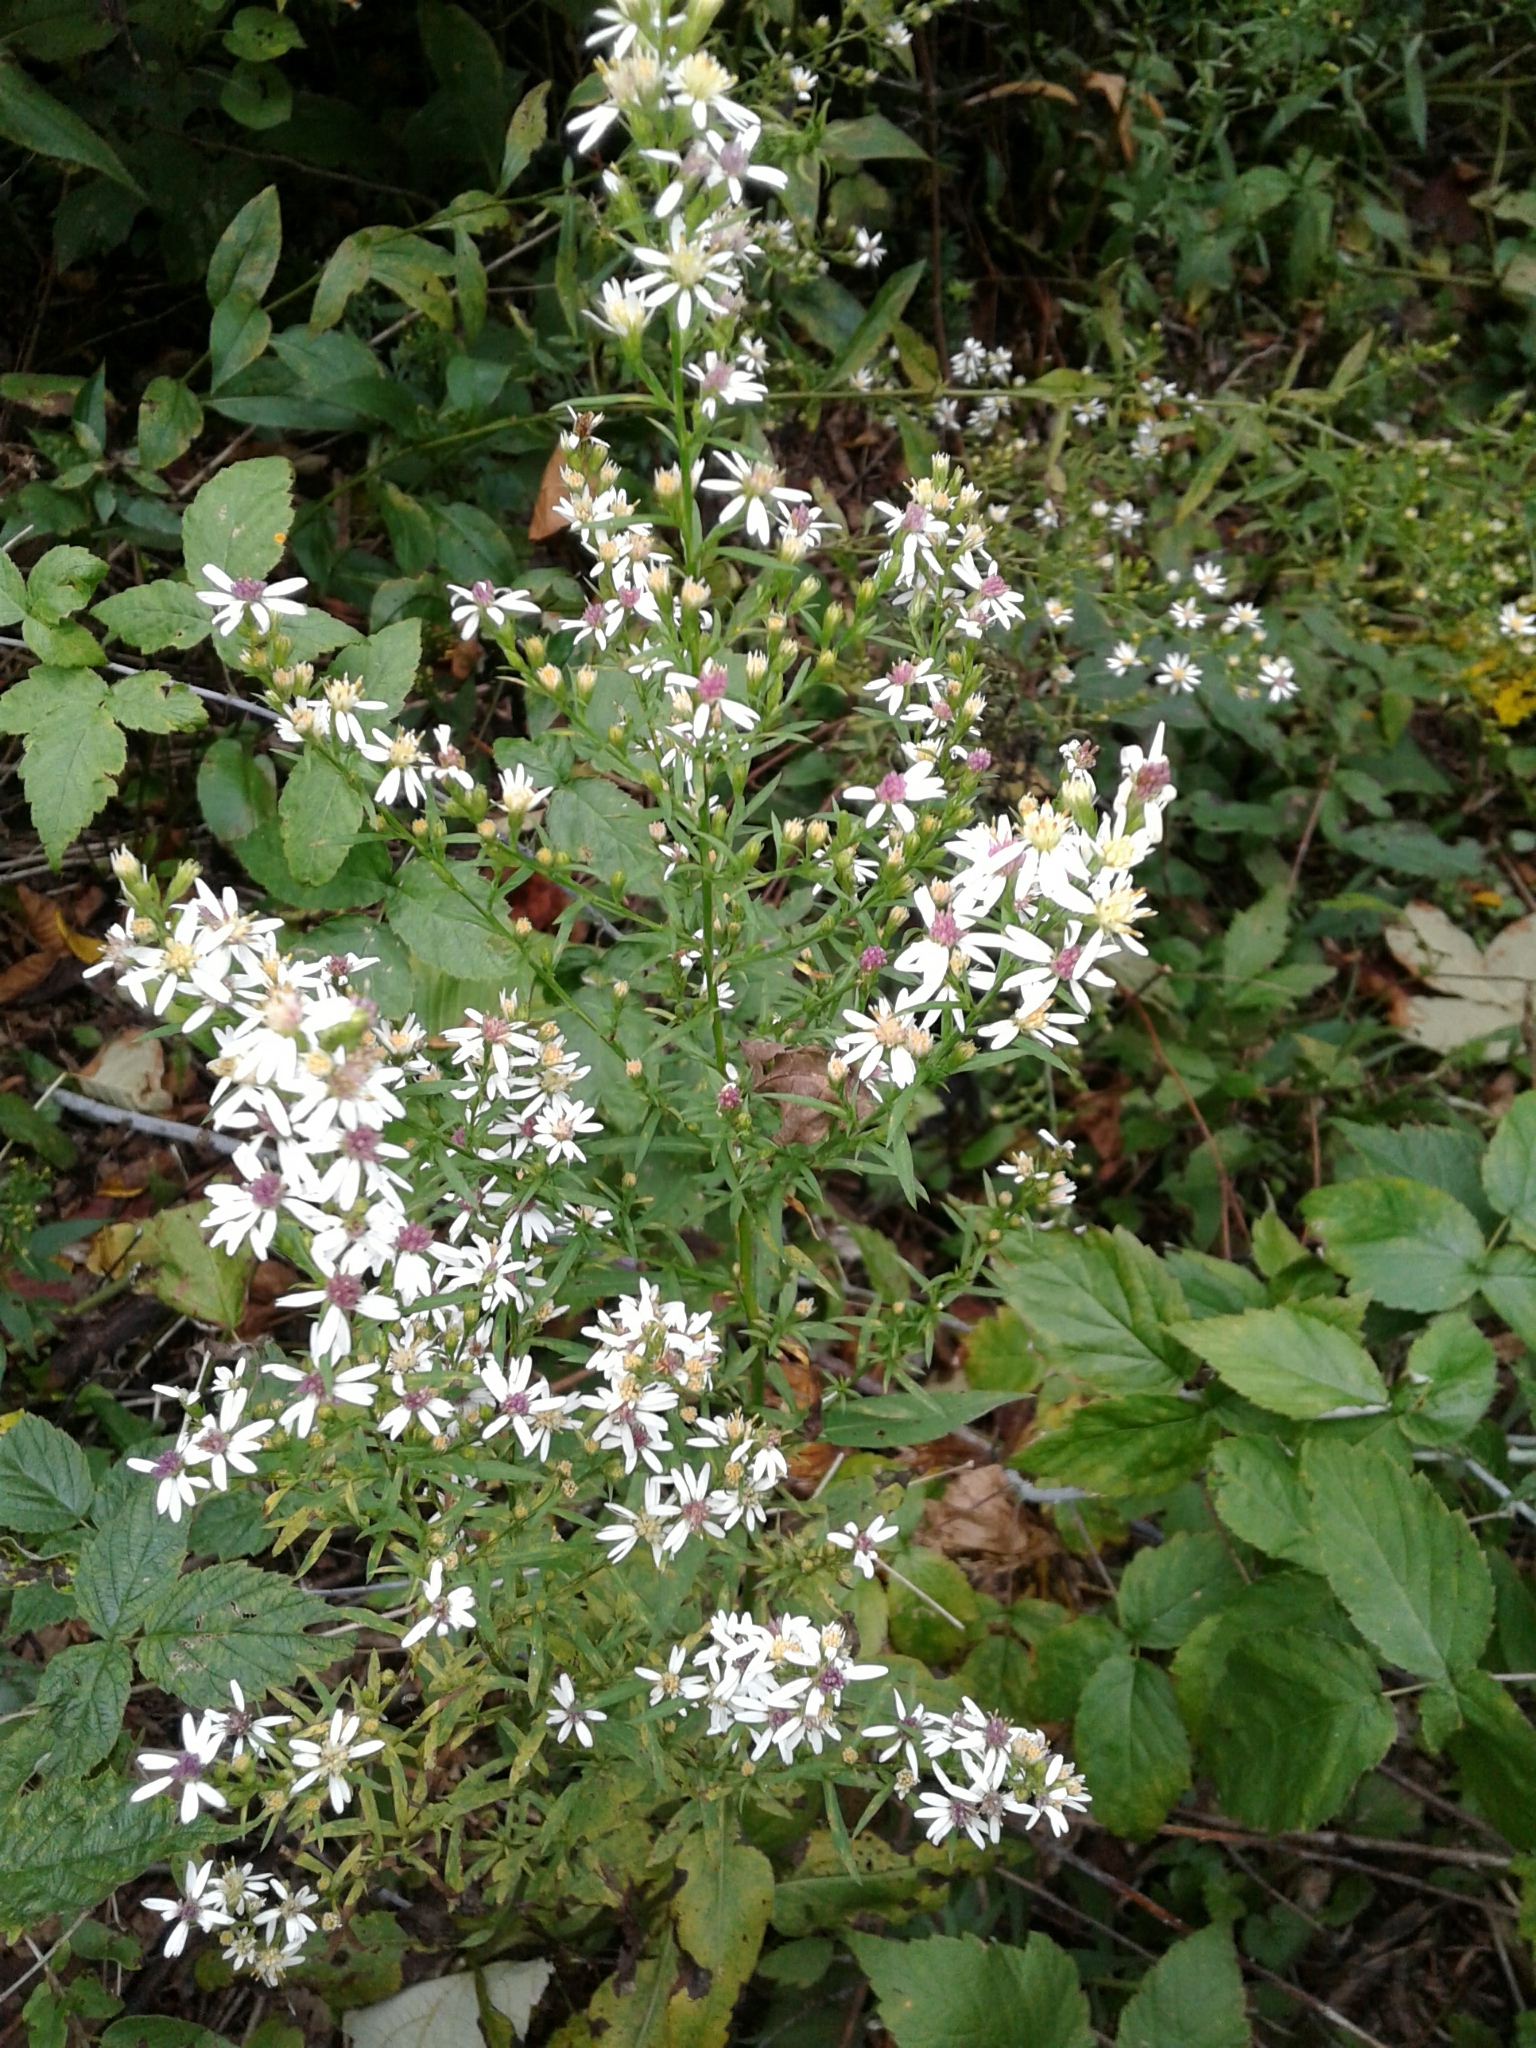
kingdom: Plantae
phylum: Tracheophyta
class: Magnoliopsida
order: Asterales
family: Asteraceae
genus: Symphyotrichum
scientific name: Symphyotrichum urophyllum
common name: Arrow-leaved aster
